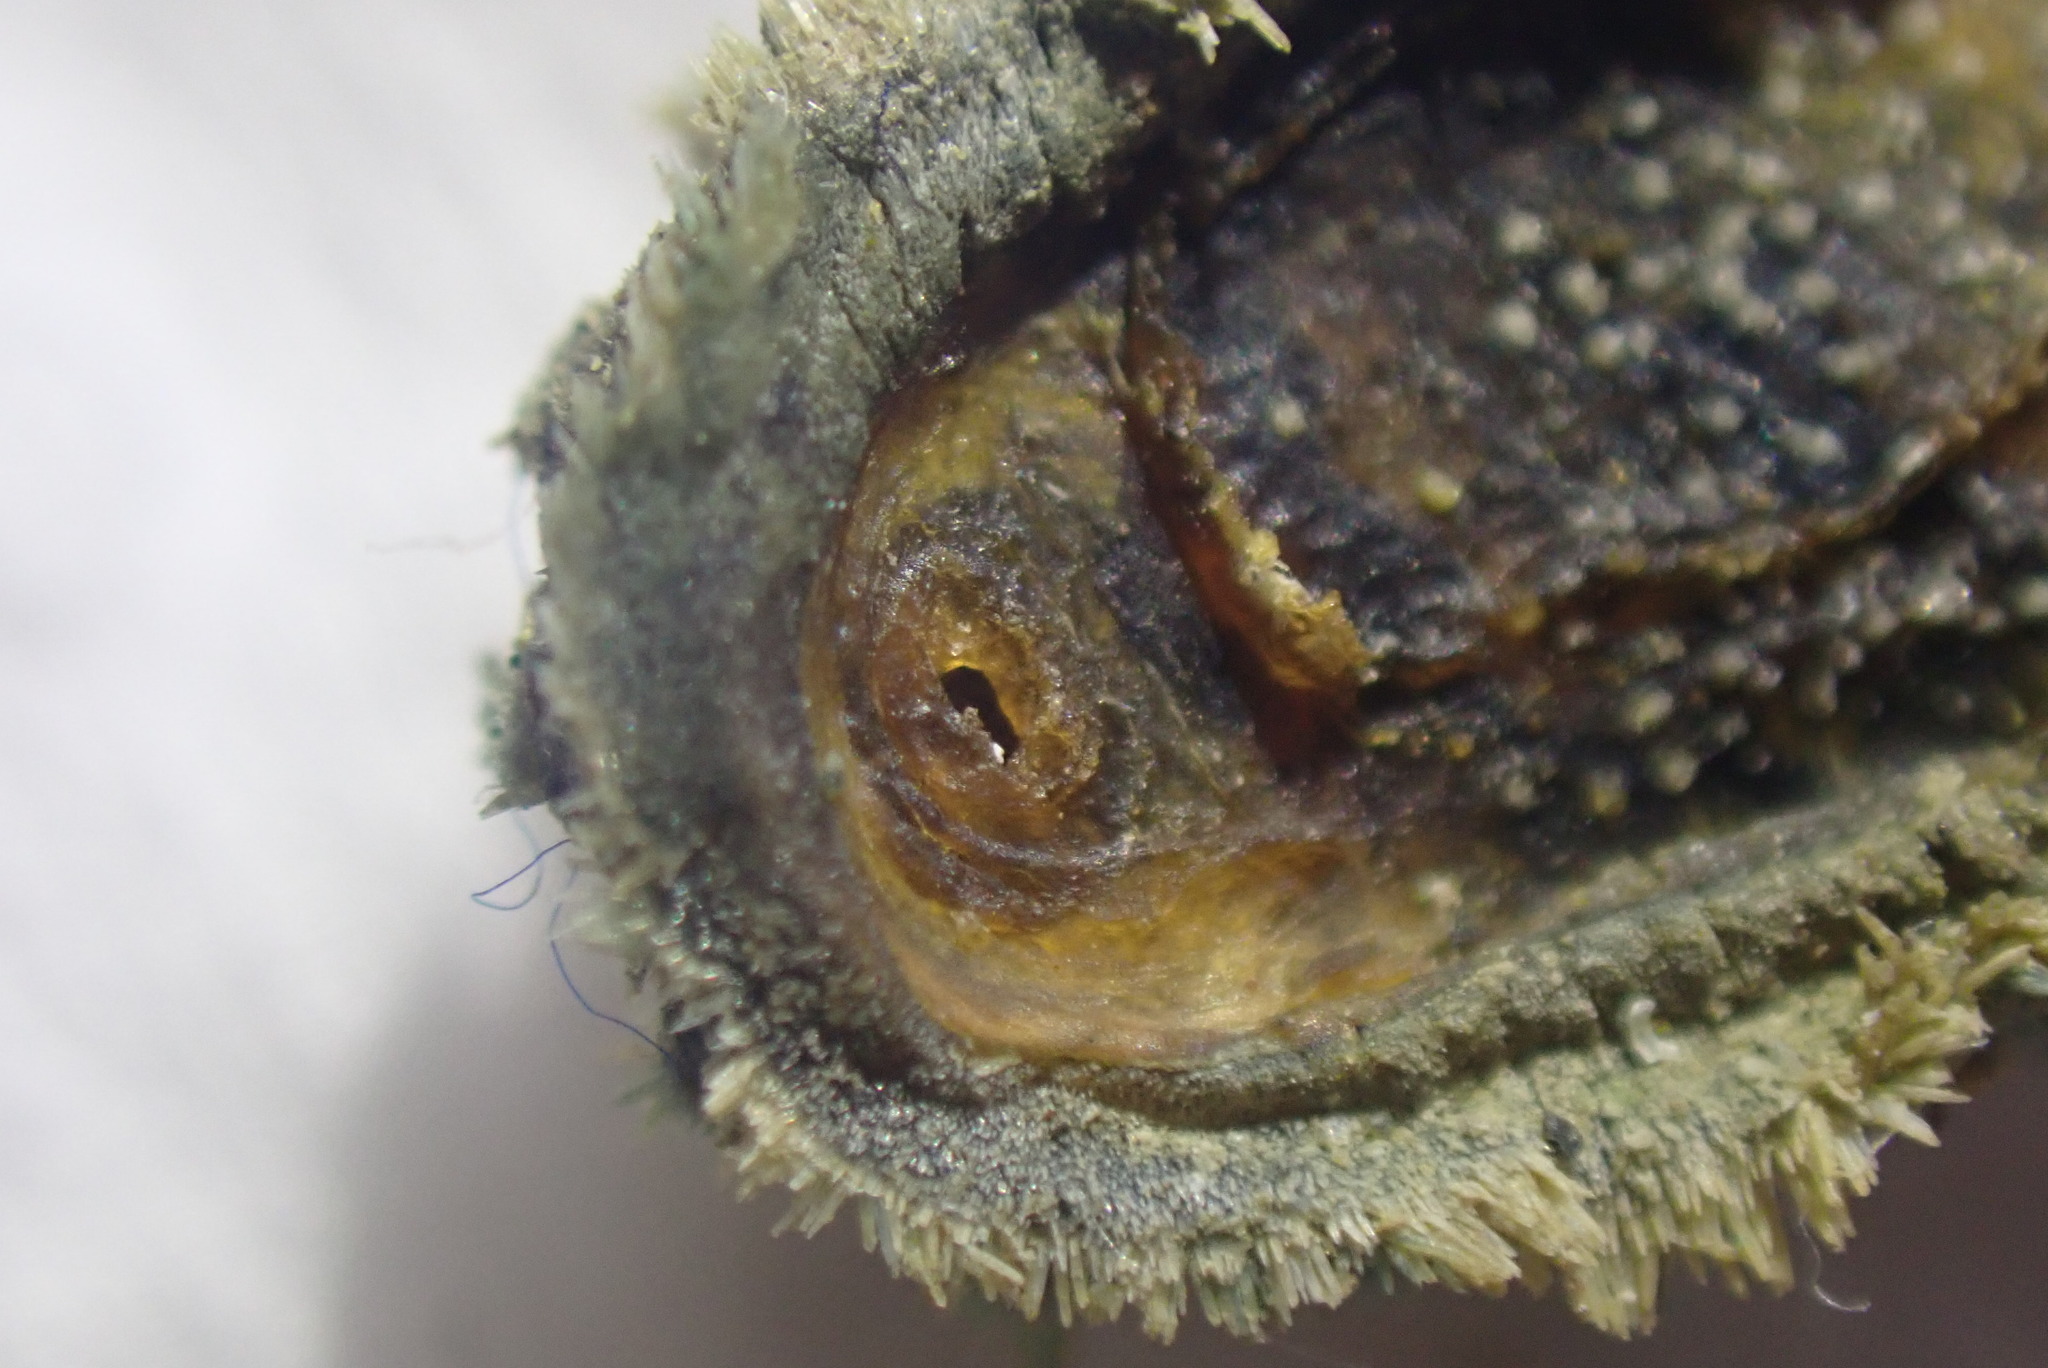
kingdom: Animalia
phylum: Mollusca
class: Polyplacophora
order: Chitonida
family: Acanthochitonidae
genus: Acanthochitona
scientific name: Acanthochitona zelandica
